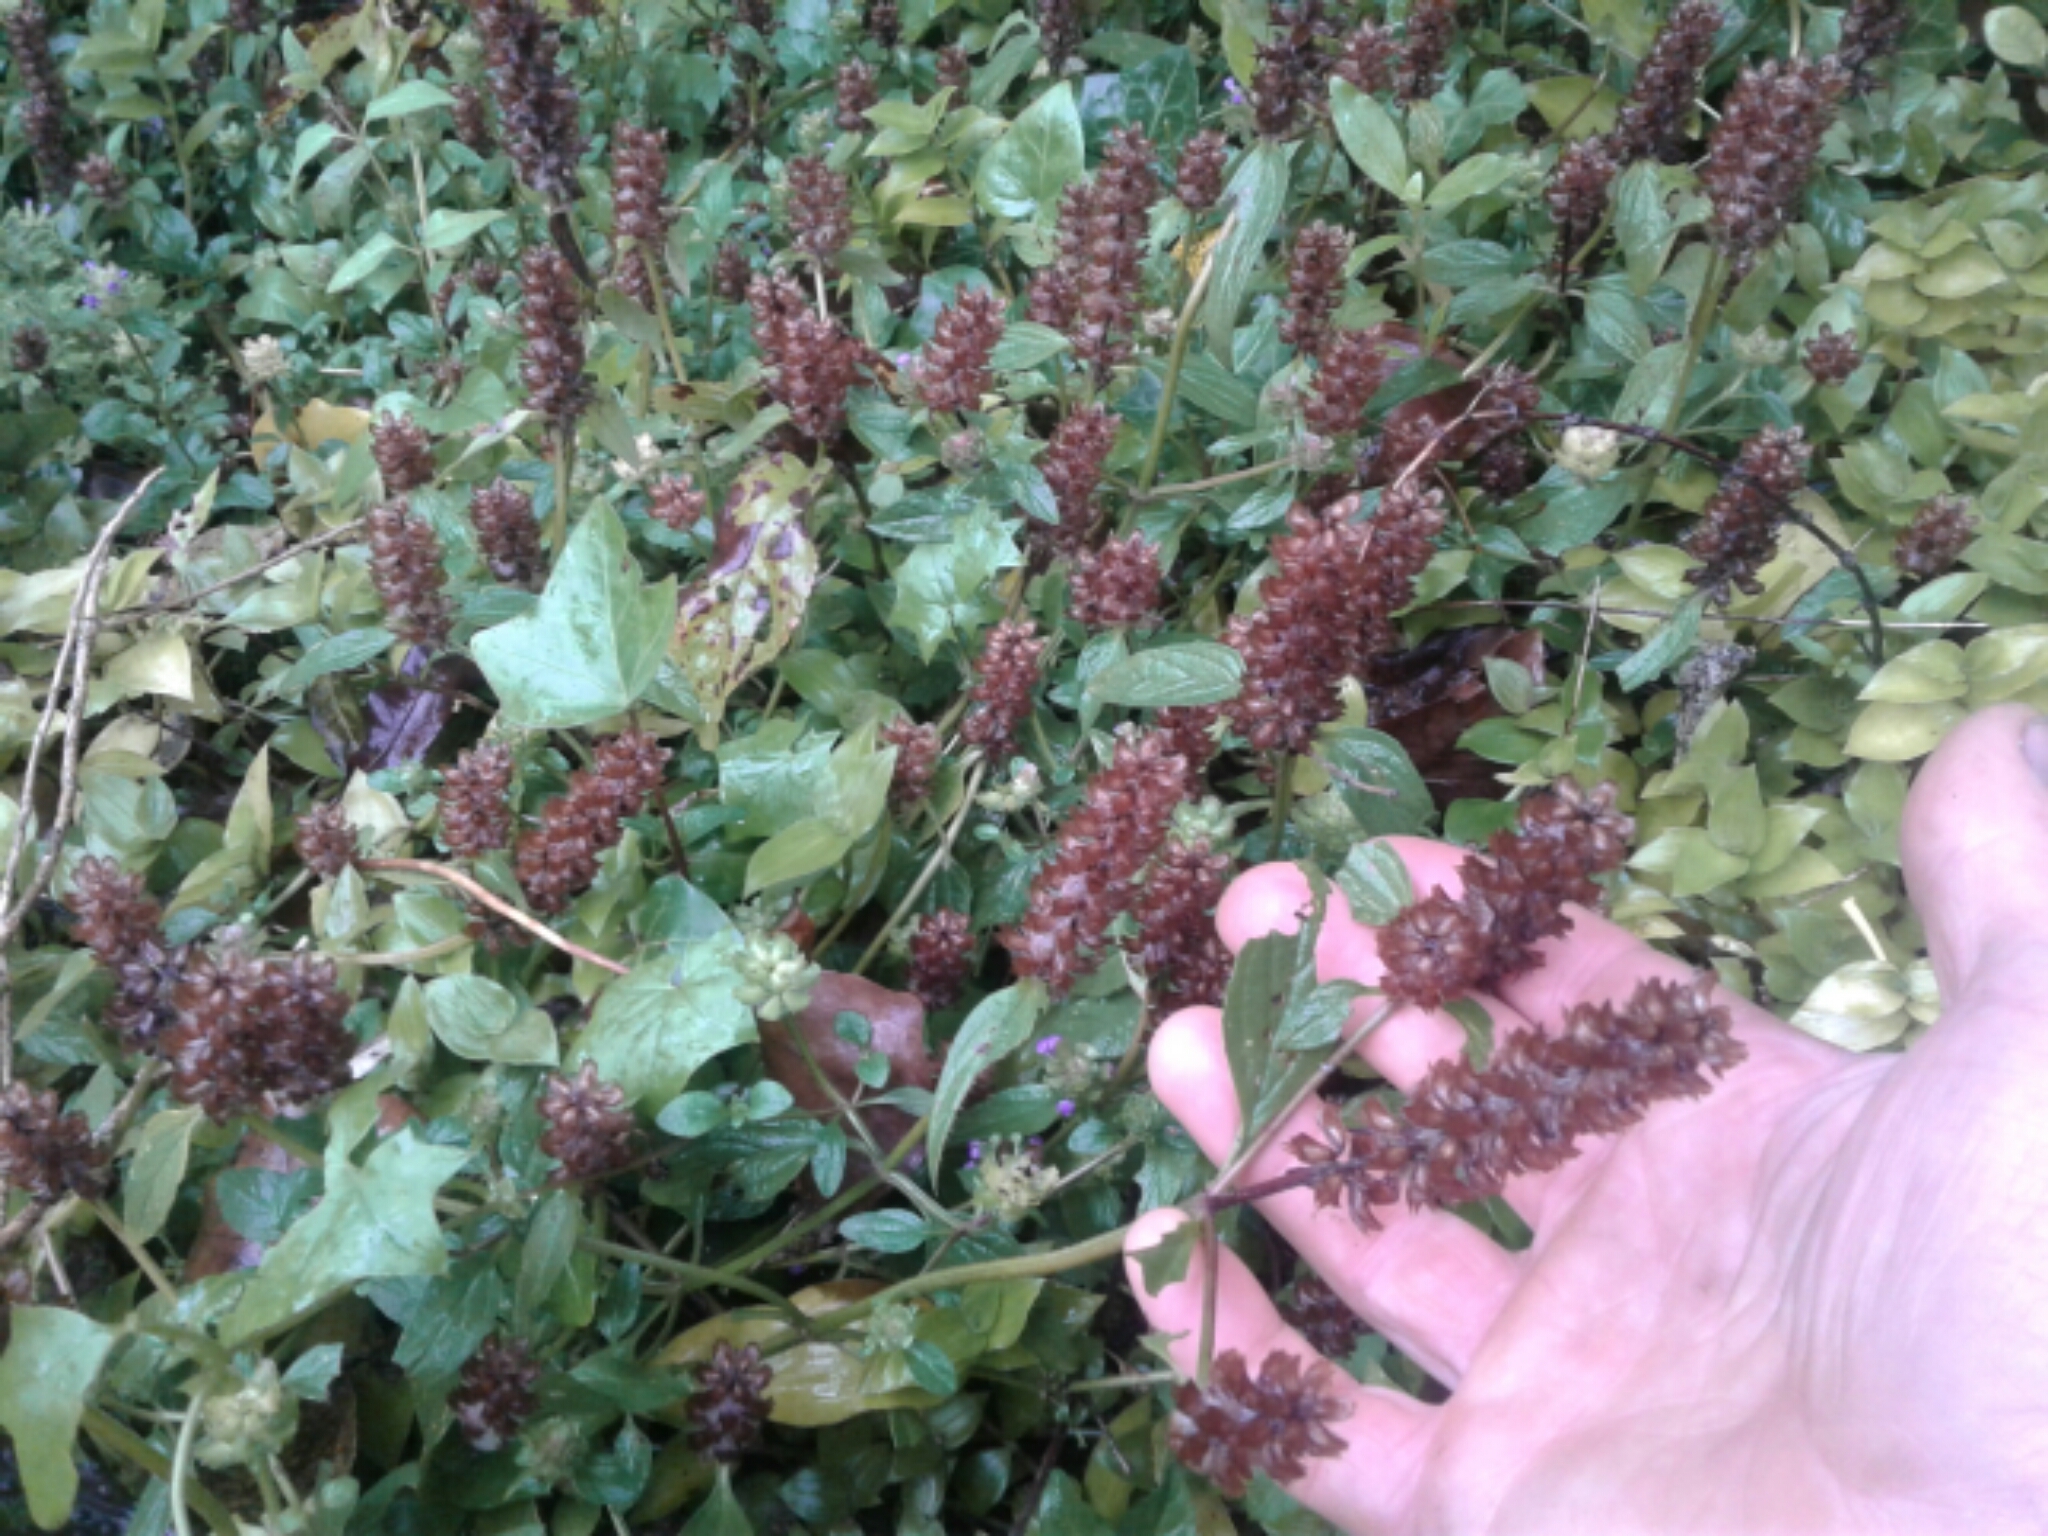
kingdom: Plantae
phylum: Tracheophyta
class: Magnoliopsida
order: Lamiales
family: Lamiaceae
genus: Prunella
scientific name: Prunella vulgaris
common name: Heal-all
